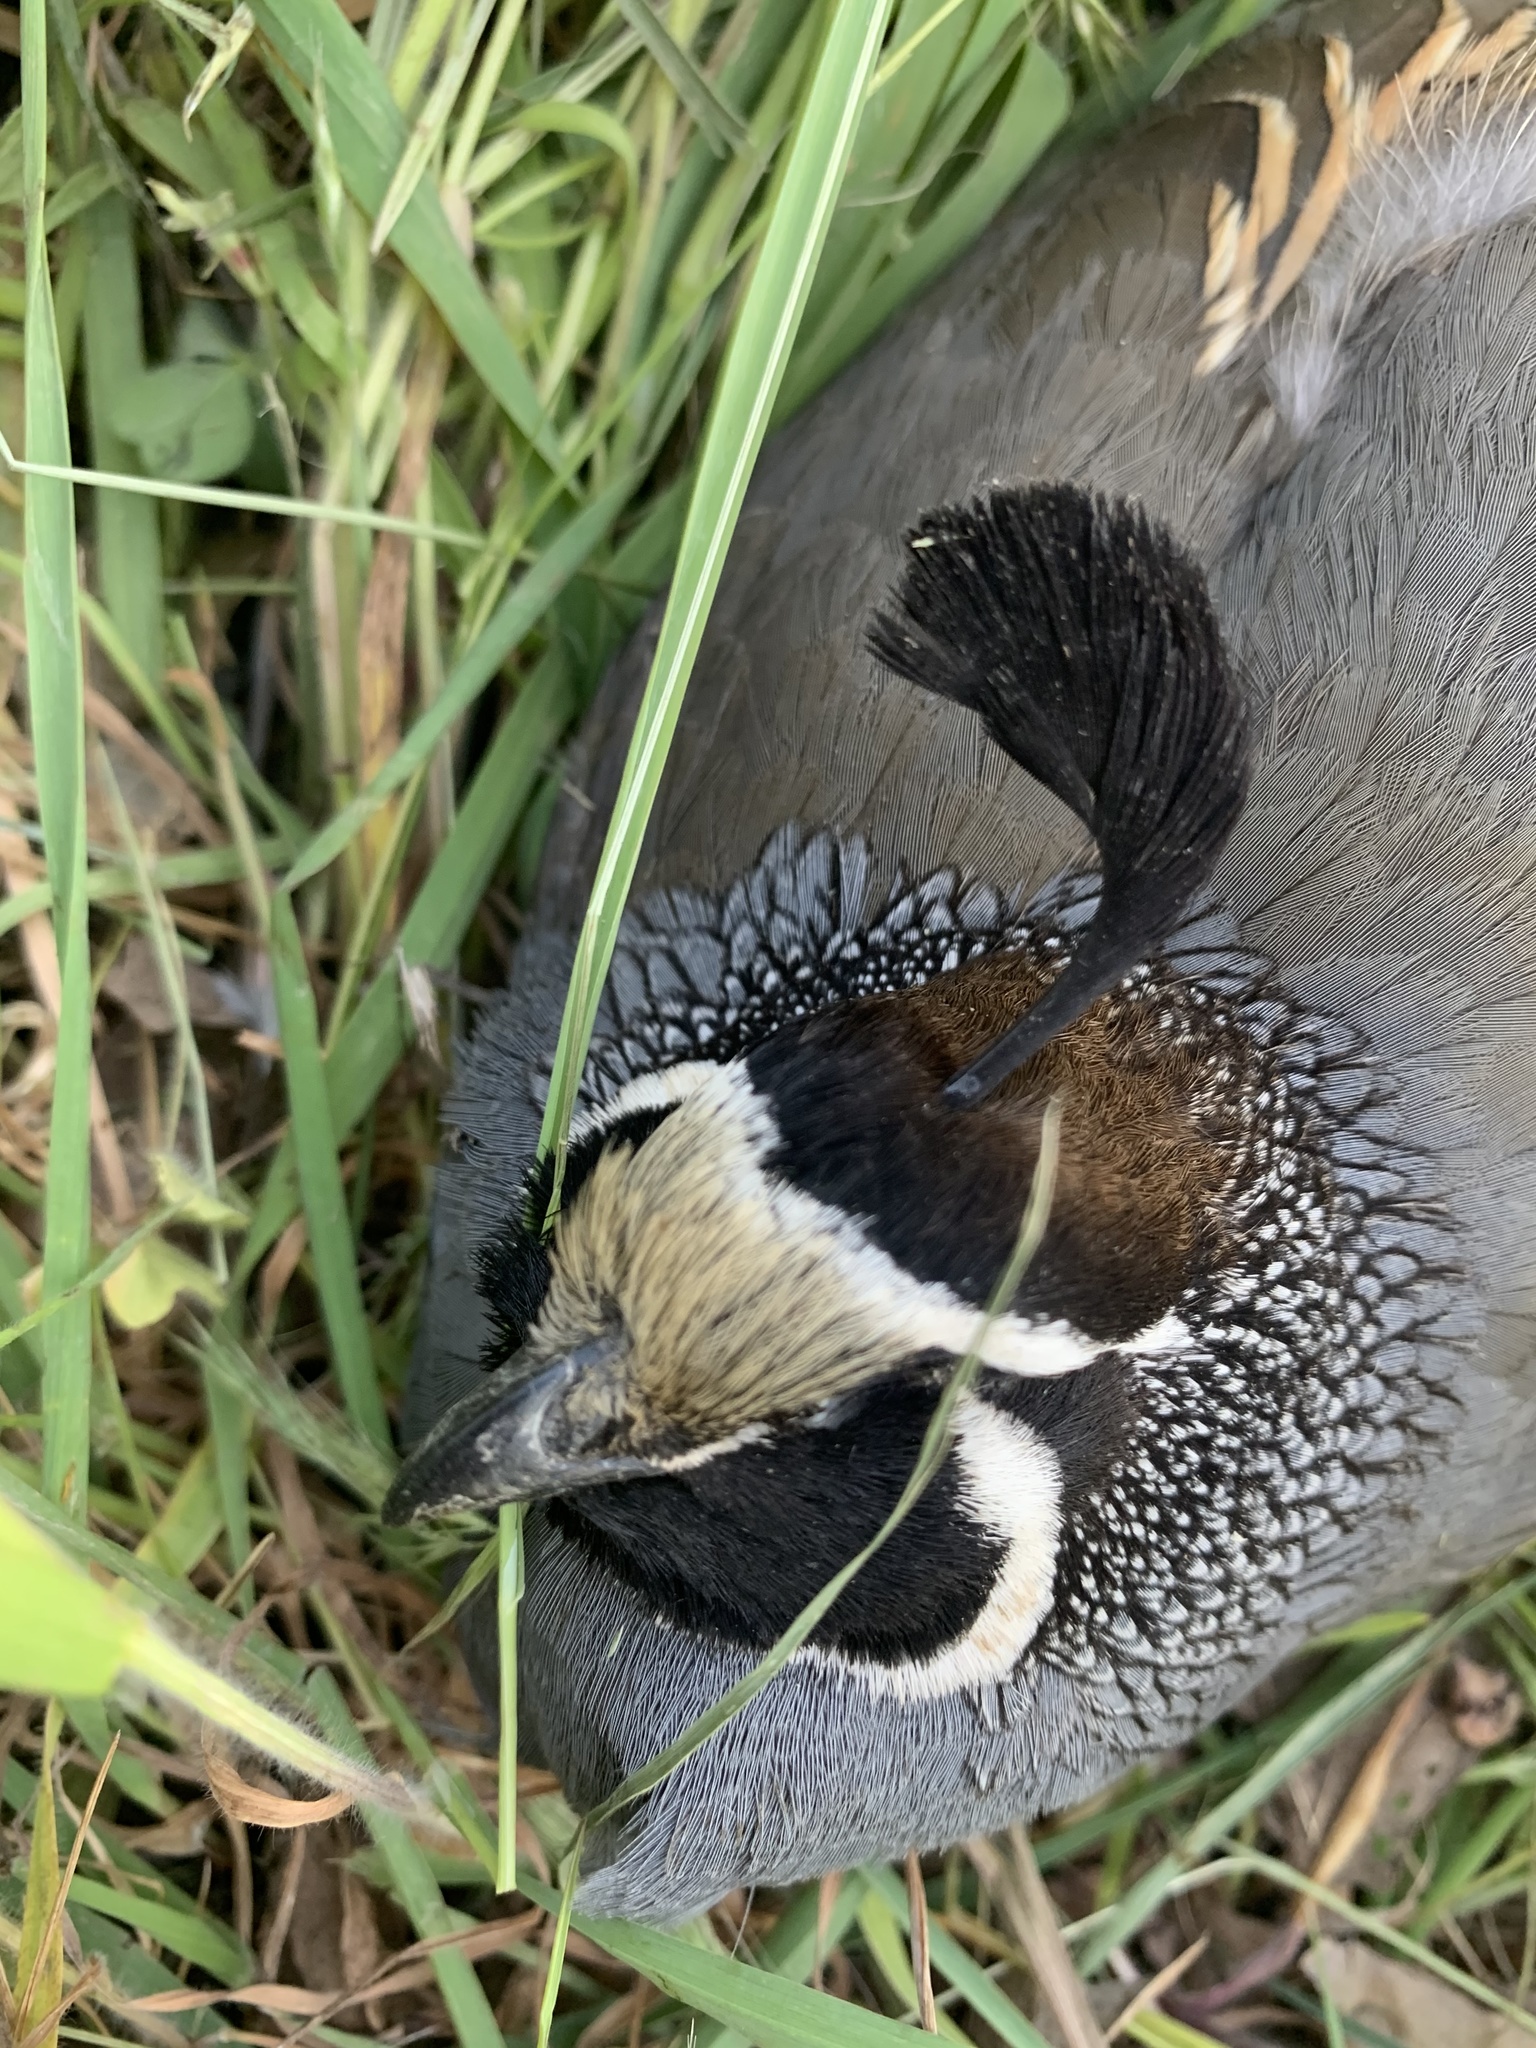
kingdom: Animalia
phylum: Chordata
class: Aves
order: Galliformes
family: Odontophoridae
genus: Callipepla
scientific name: Callipepla californica
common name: California quail
